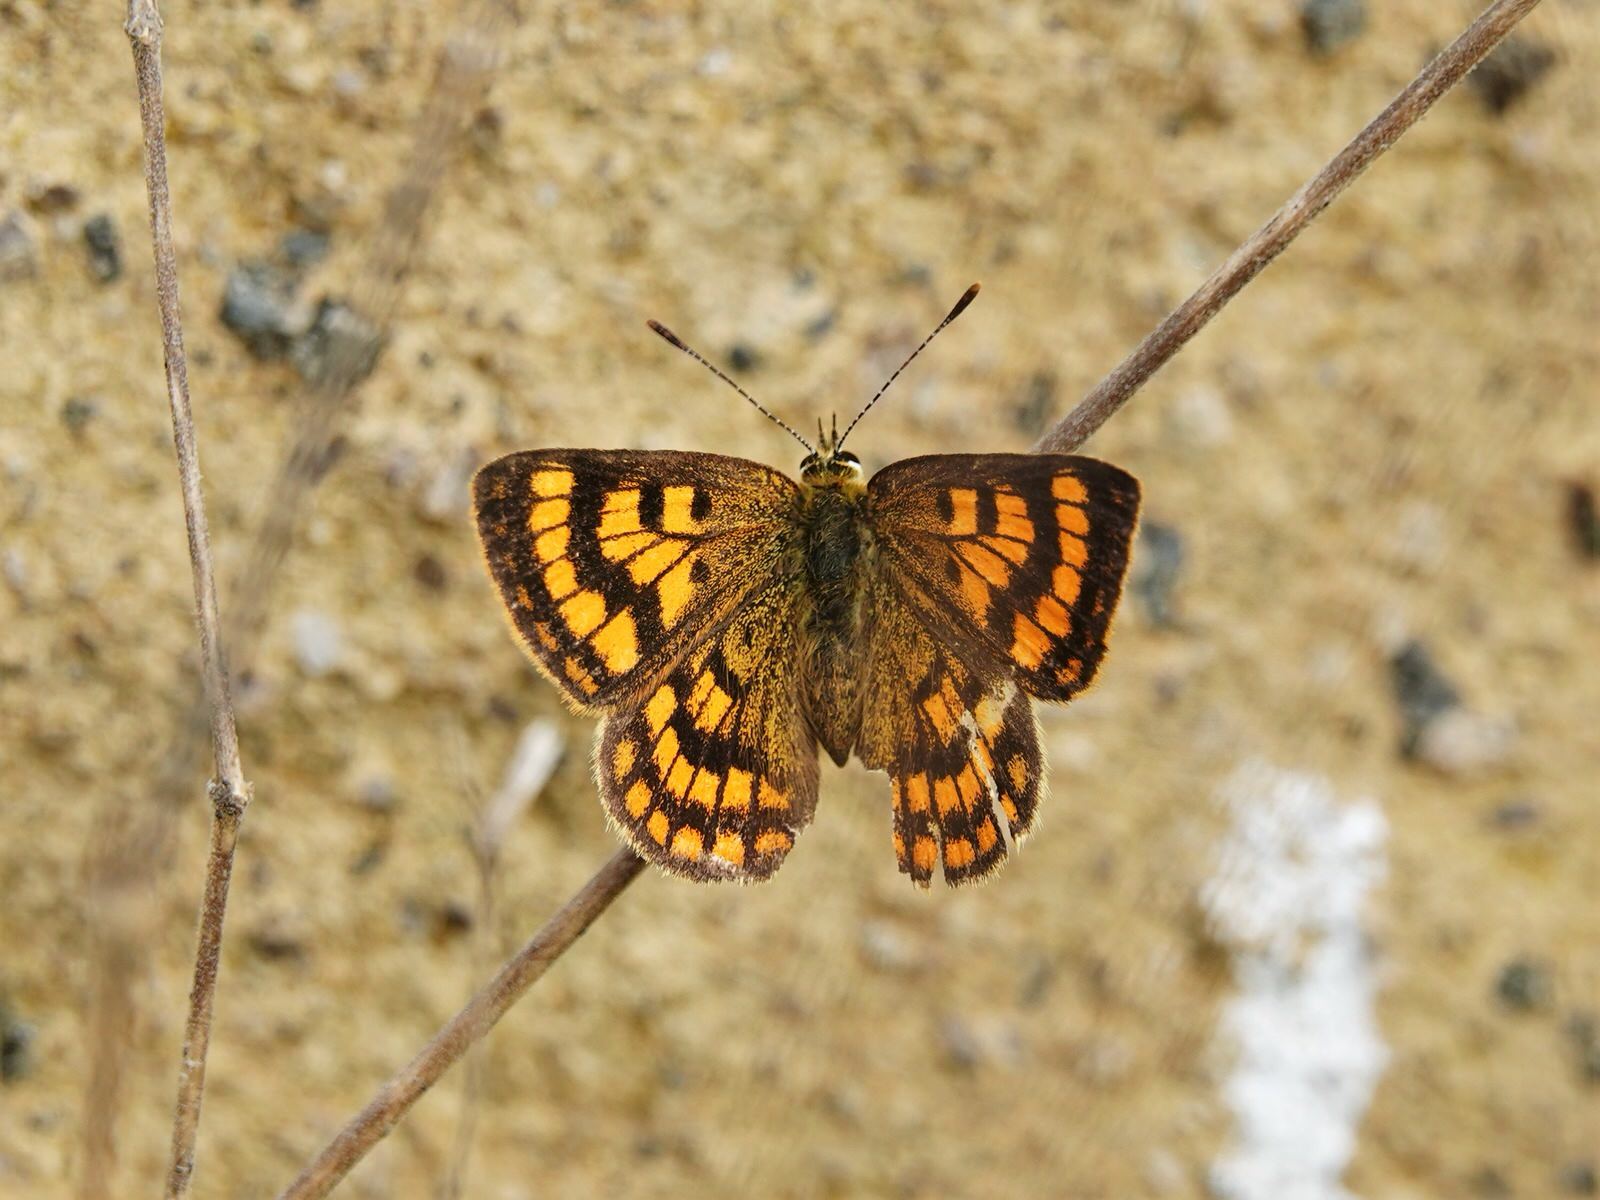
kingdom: Animalia
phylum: Arthropoda
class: Insecta
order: Lepidoptera
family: Lycaenidae
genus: Lycaena
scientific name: Lycaena salustius
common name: North island coastal copper
